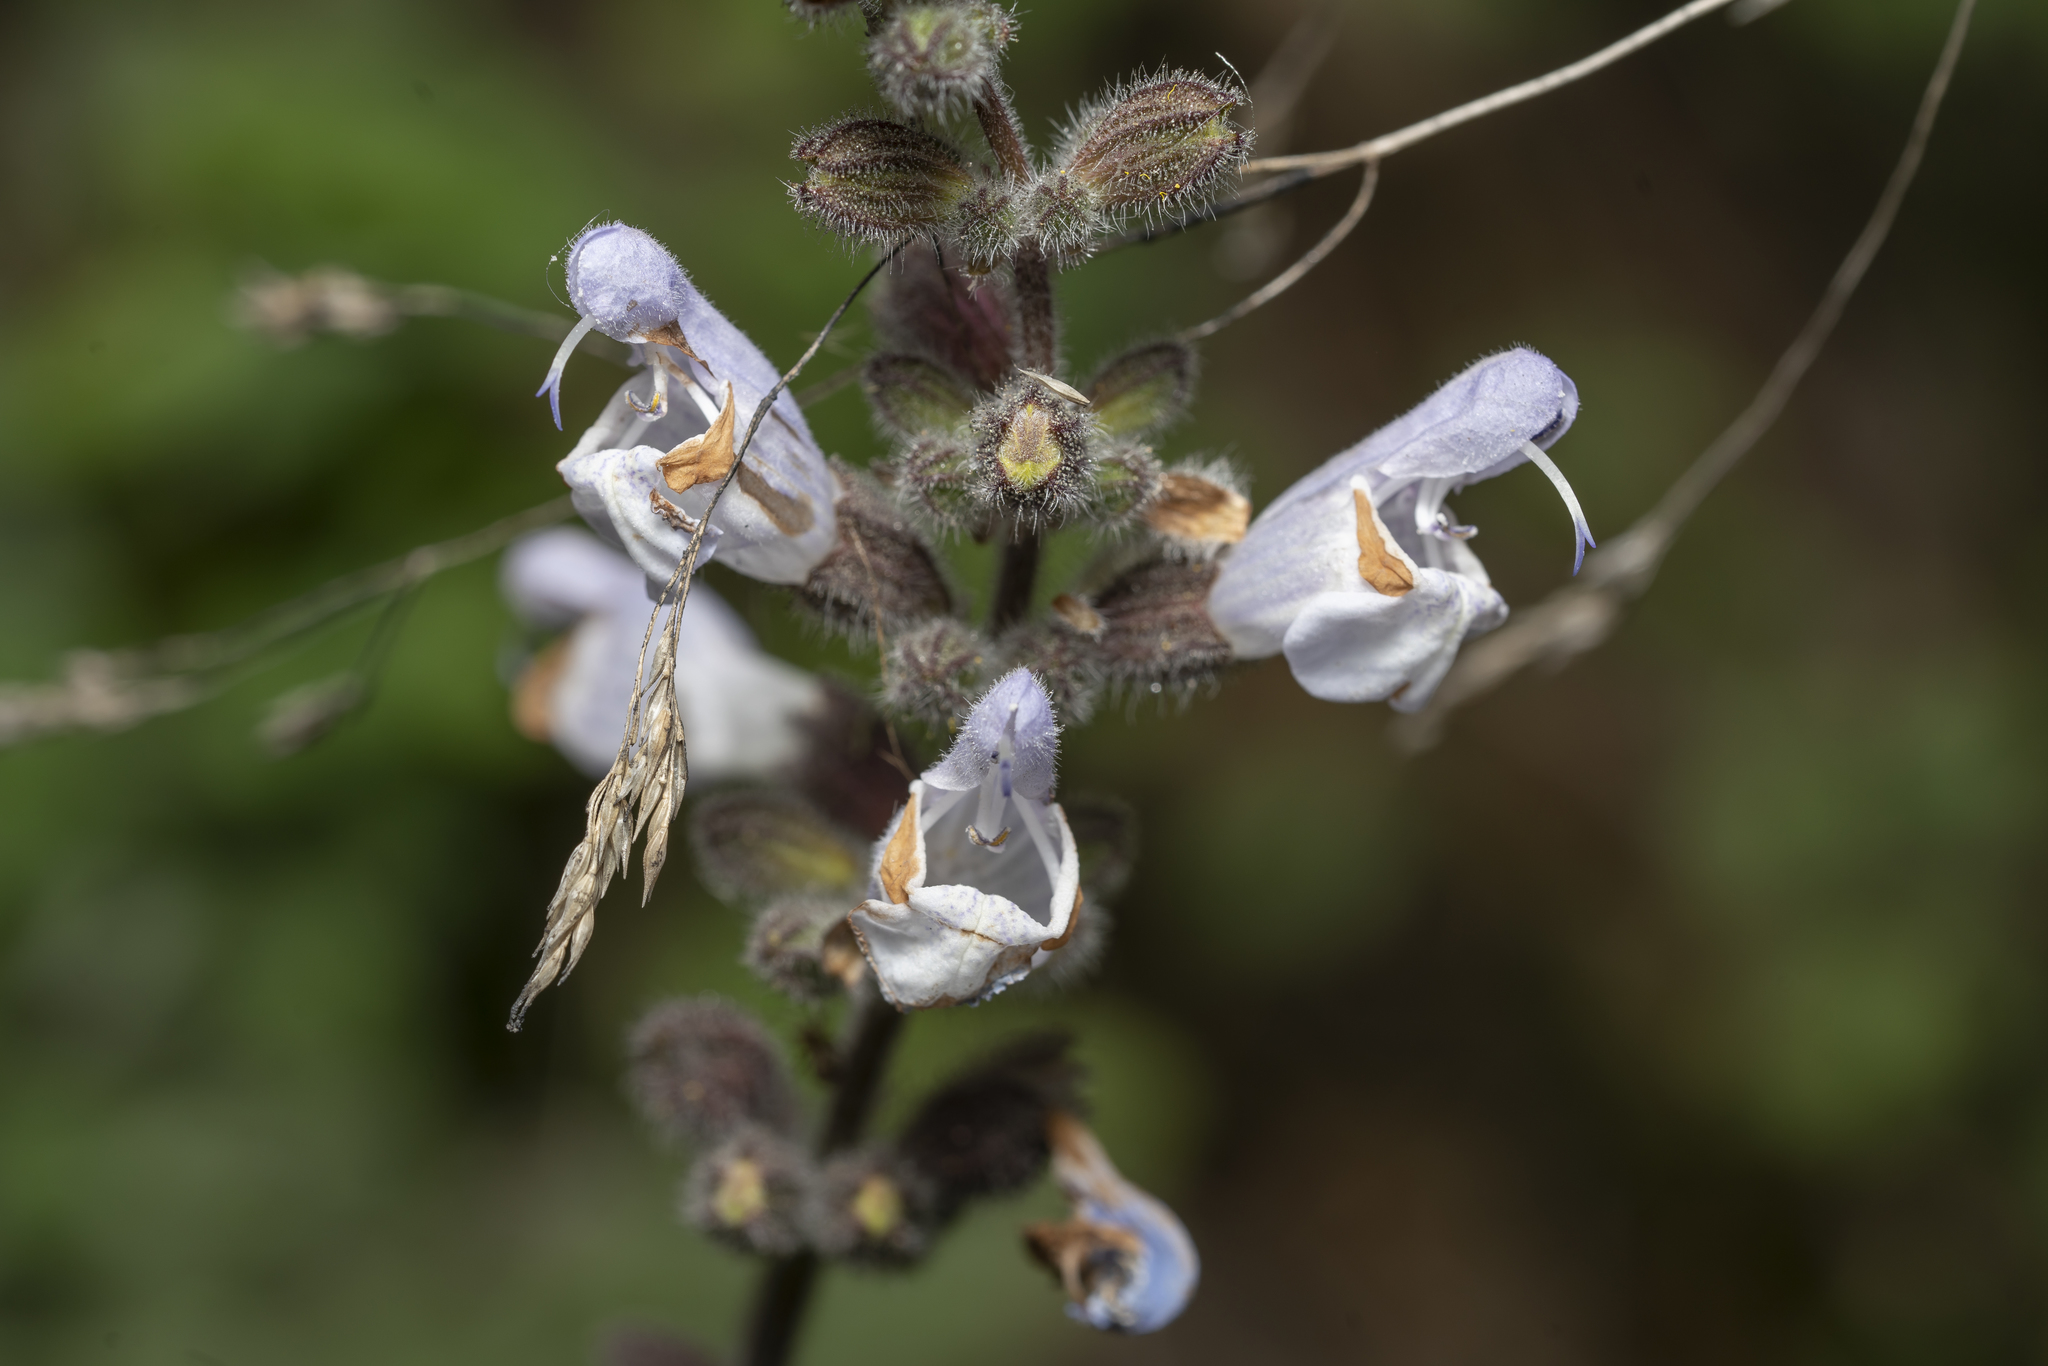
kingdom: Plantae
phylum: Tracheophyta
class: Magnoliopsida
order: Lamiales
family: Lamiaceae
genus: Salvia
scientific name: Salvia fruticosa
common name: Greek sage
